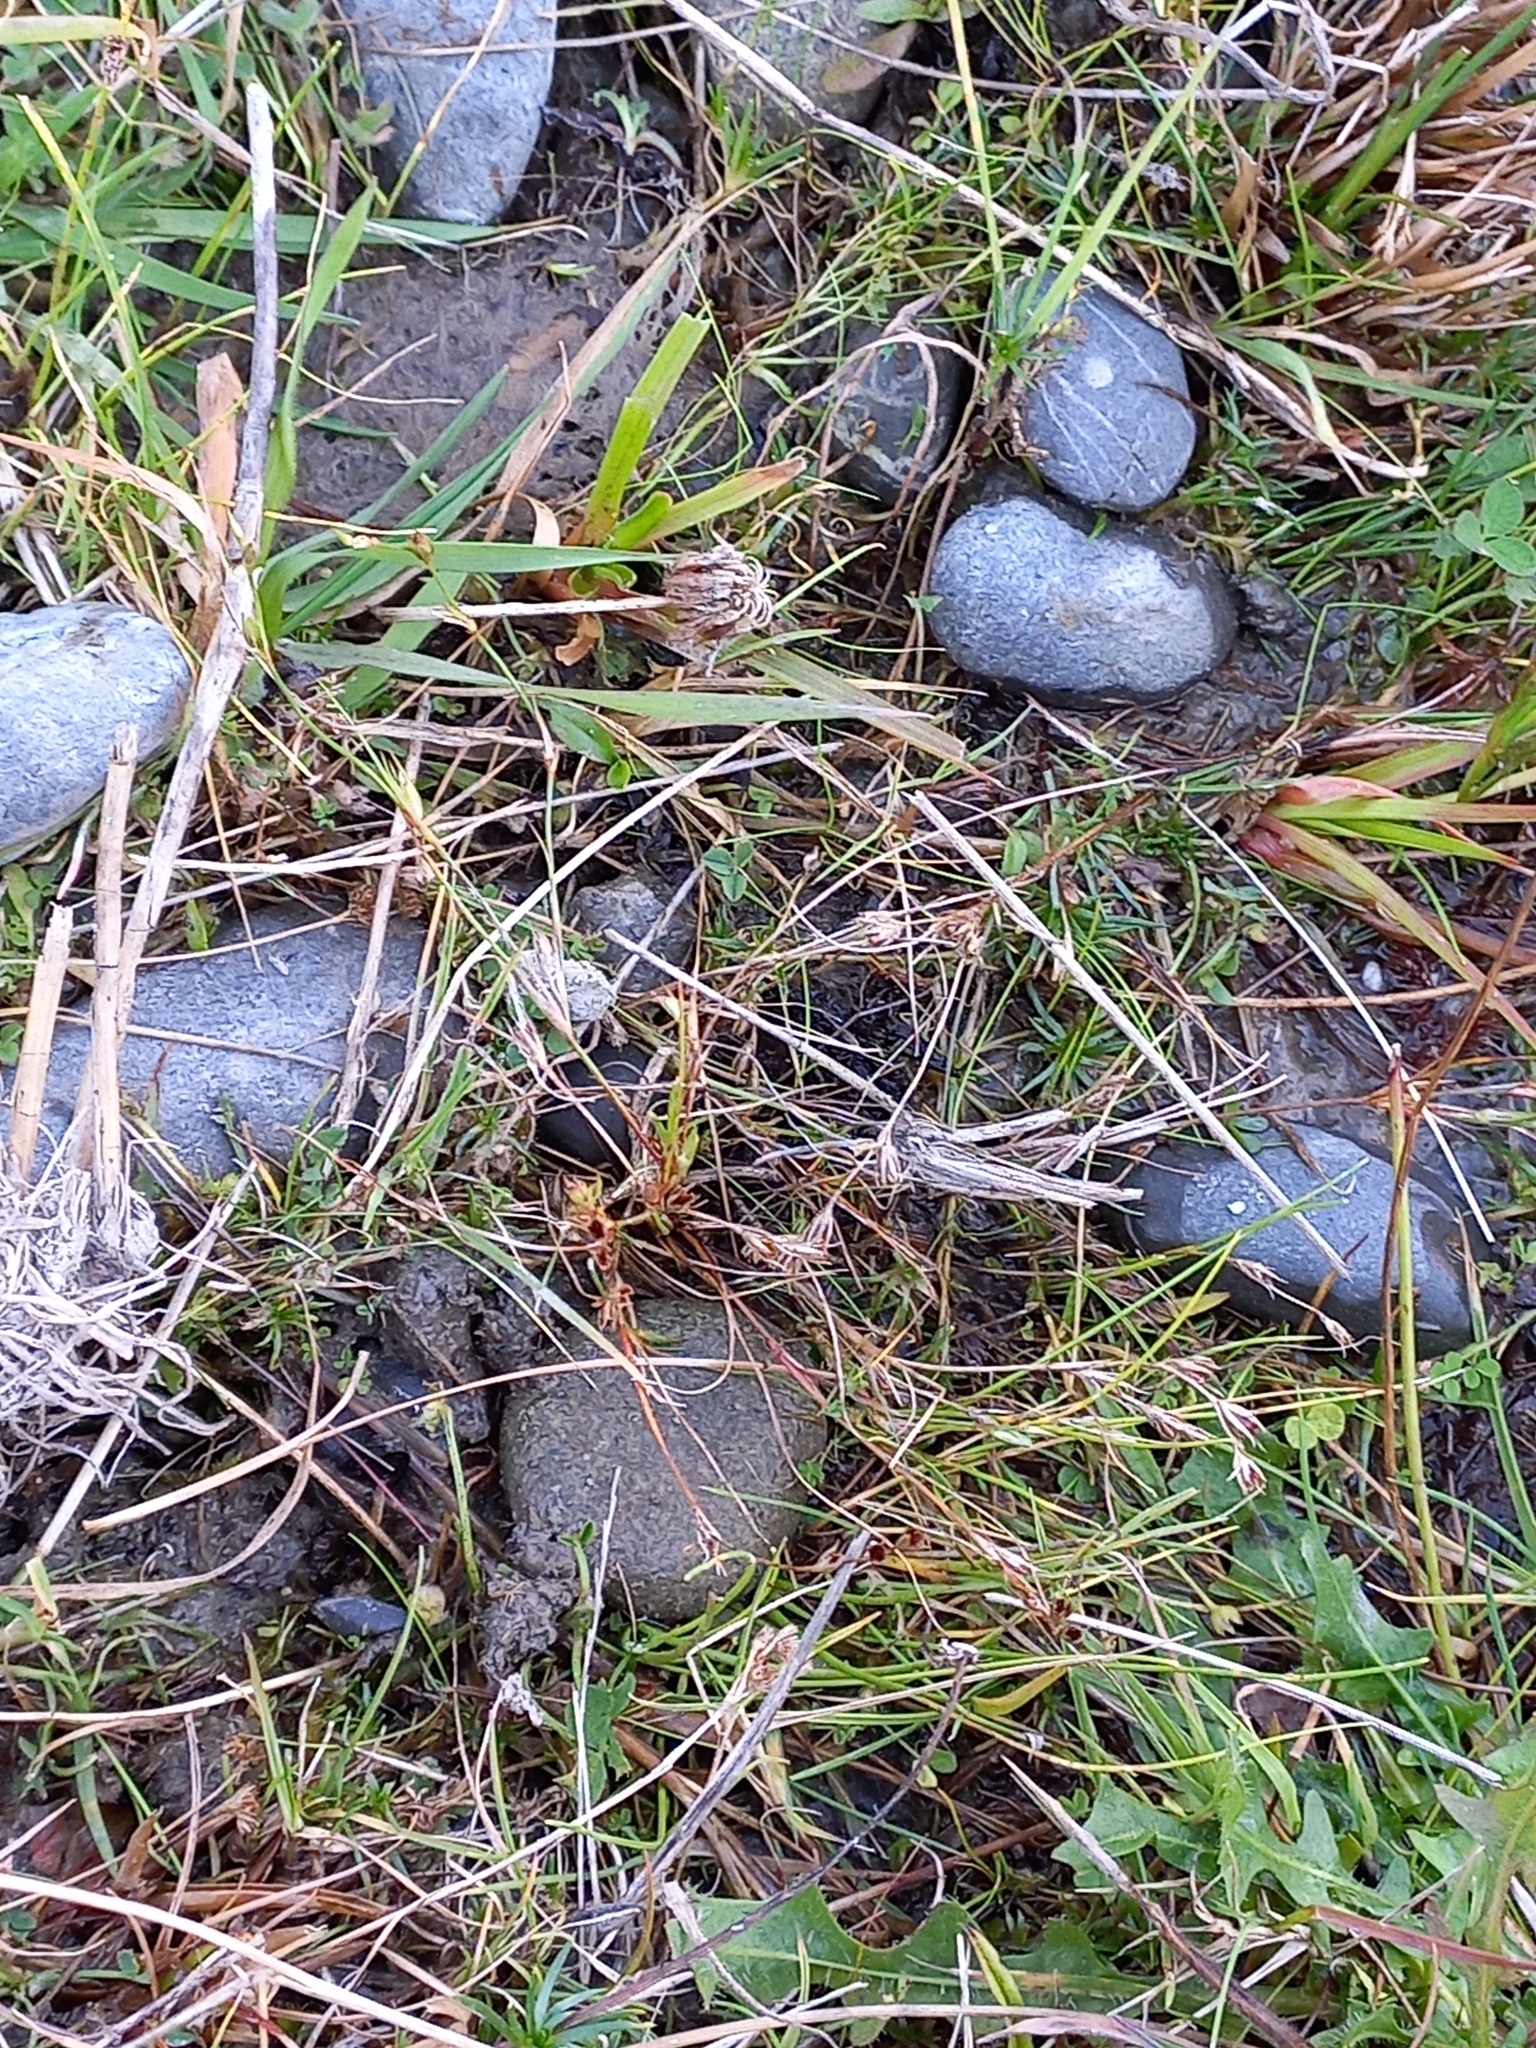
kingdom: Plantae
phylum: Tracheophyta
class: Liliopsida
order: Poales
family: Juncaceae
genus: Juncus
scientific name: Juncus planifolius
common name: Broadleaf rush
